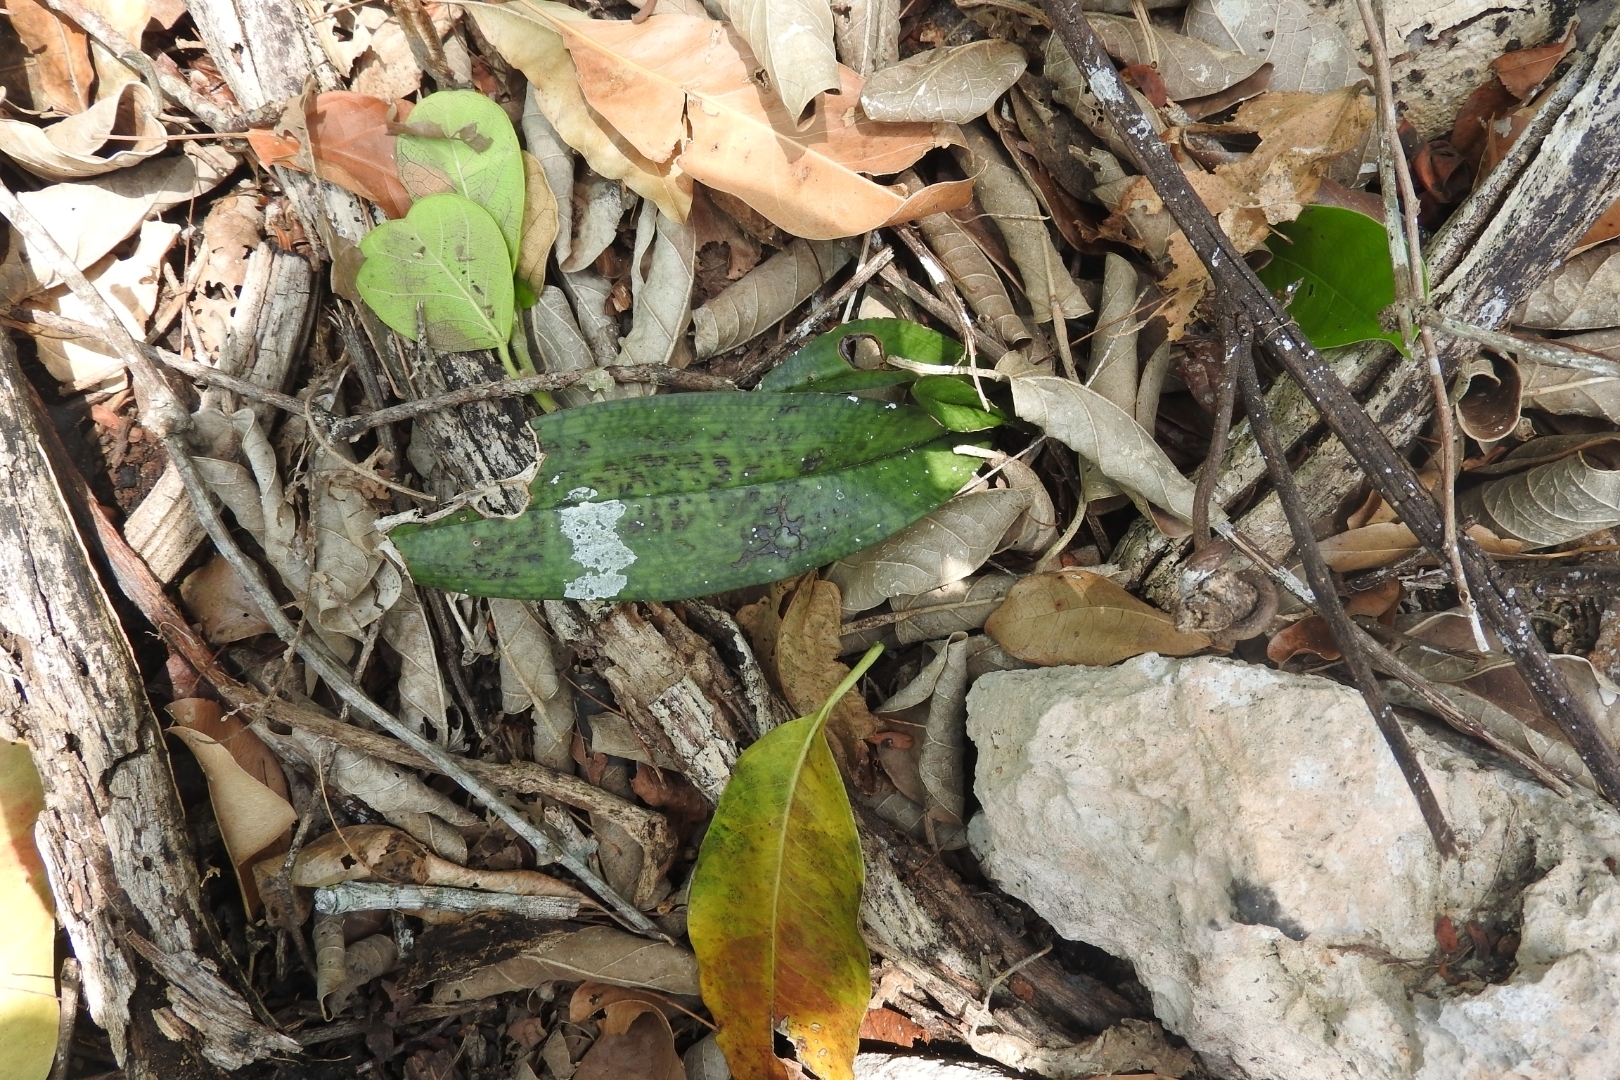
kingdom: Plantae
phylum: Tracheophyta
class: Liliopsida
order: Asparagales
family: Orchidaceae
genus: Eulophia
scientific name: Eulophia maculata
